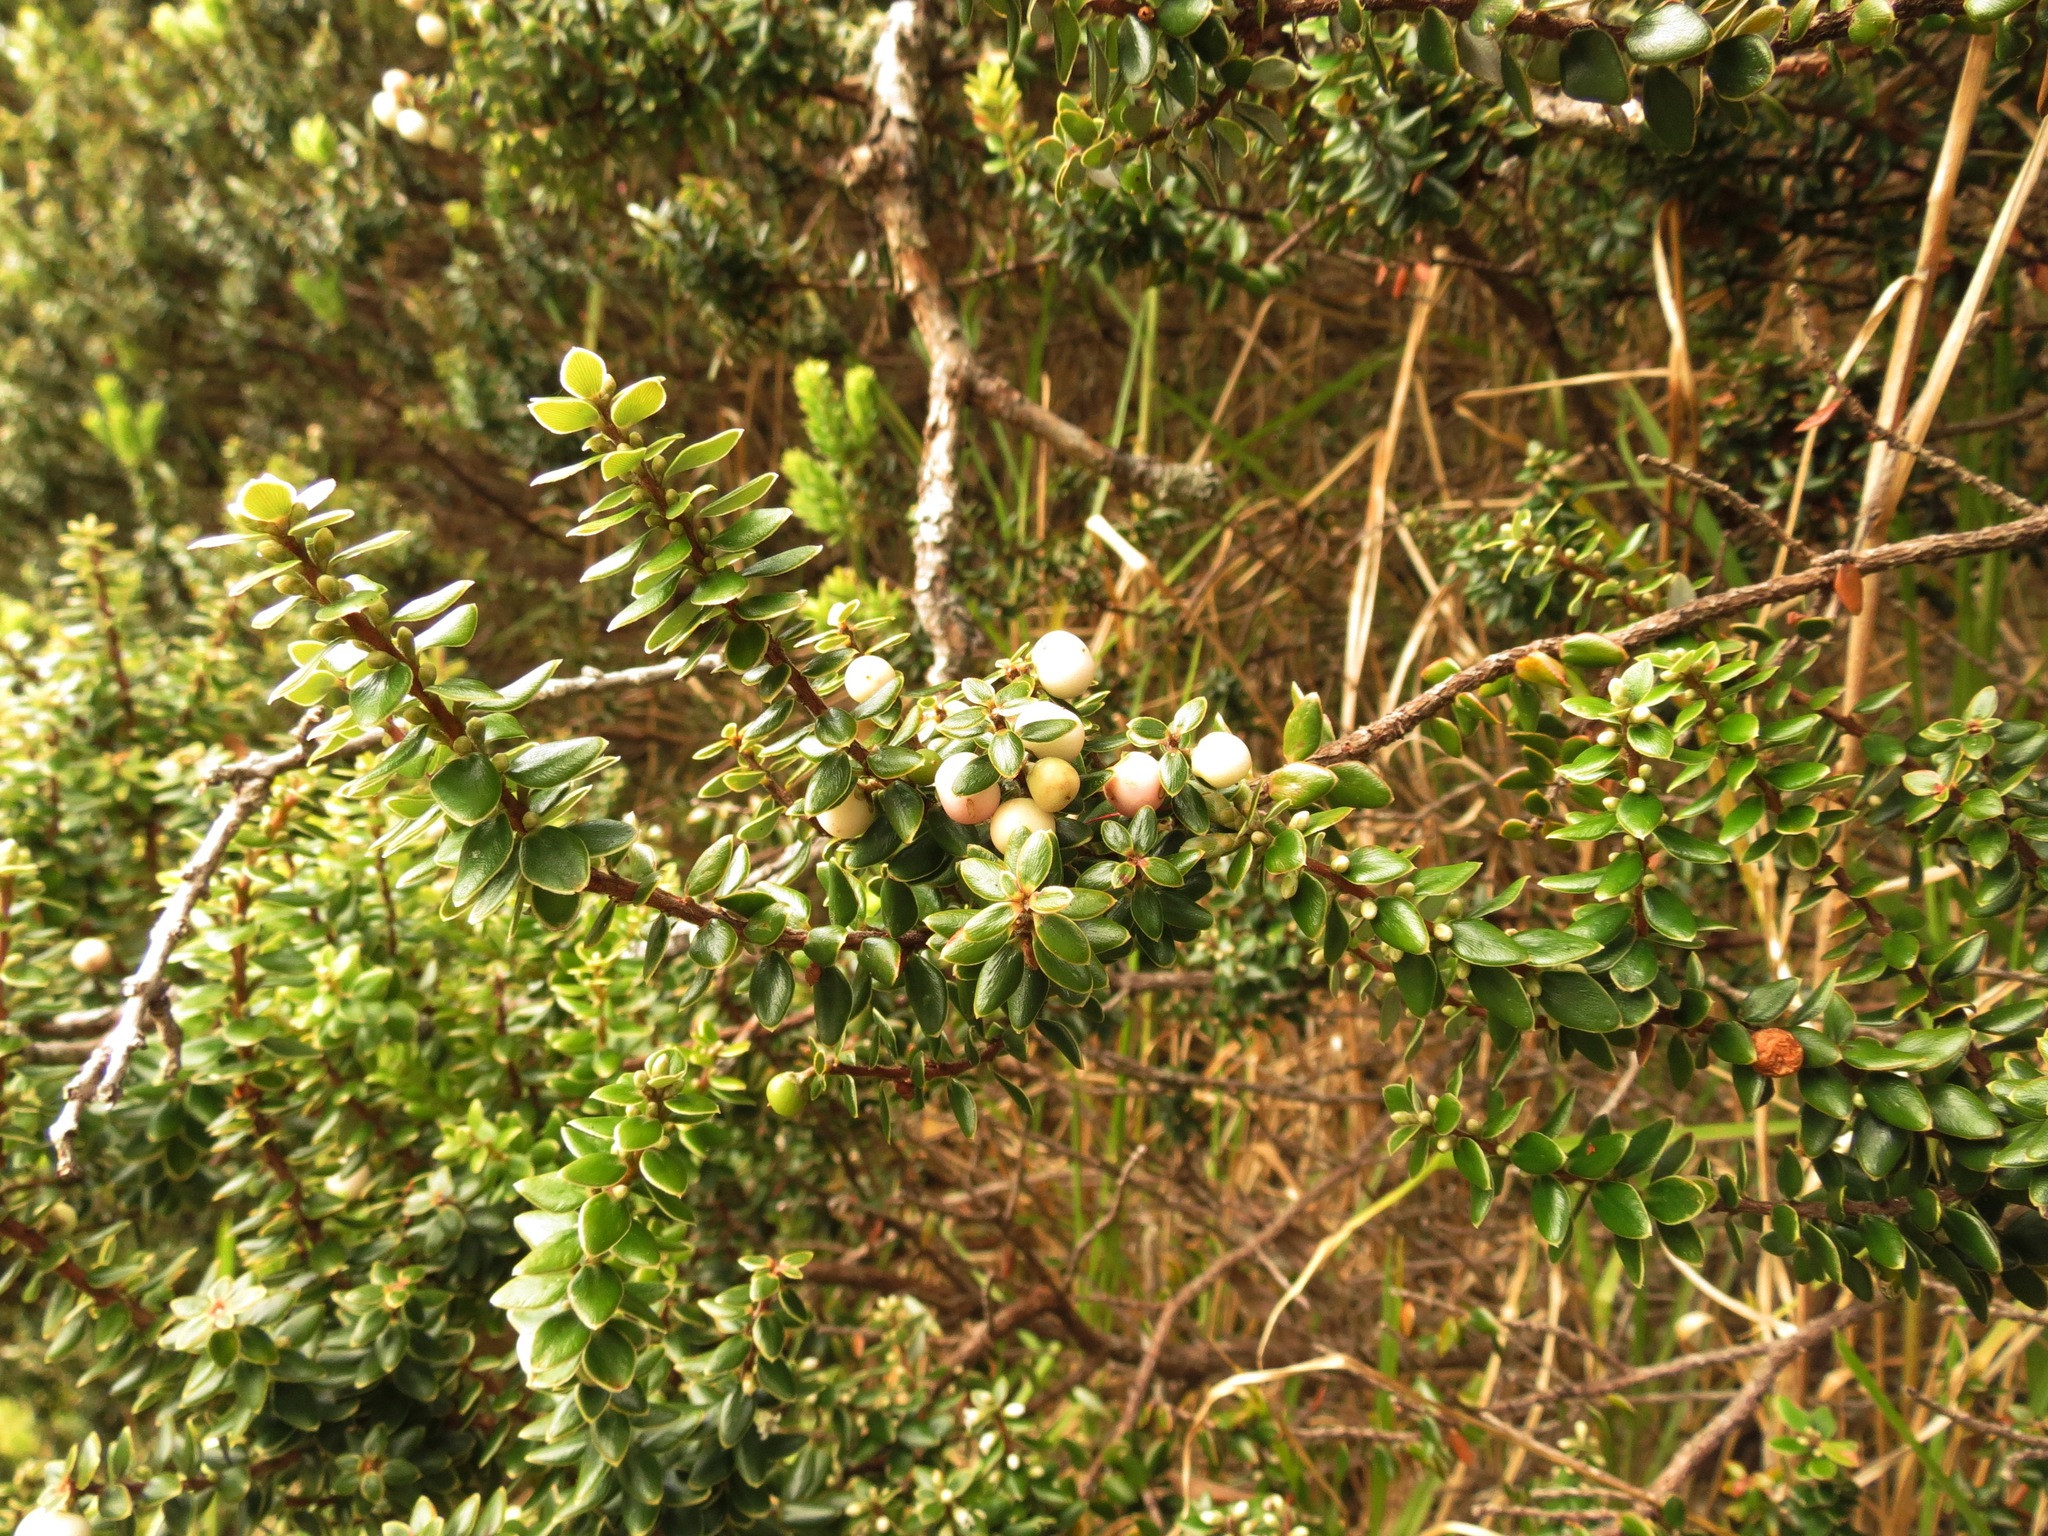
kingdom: Plantae
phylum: Tracheophyta
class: Magnoliopsida
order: Ericales
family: Ericaceae
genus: Leptecophylla
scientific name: Leptecophylla tameiameiae
